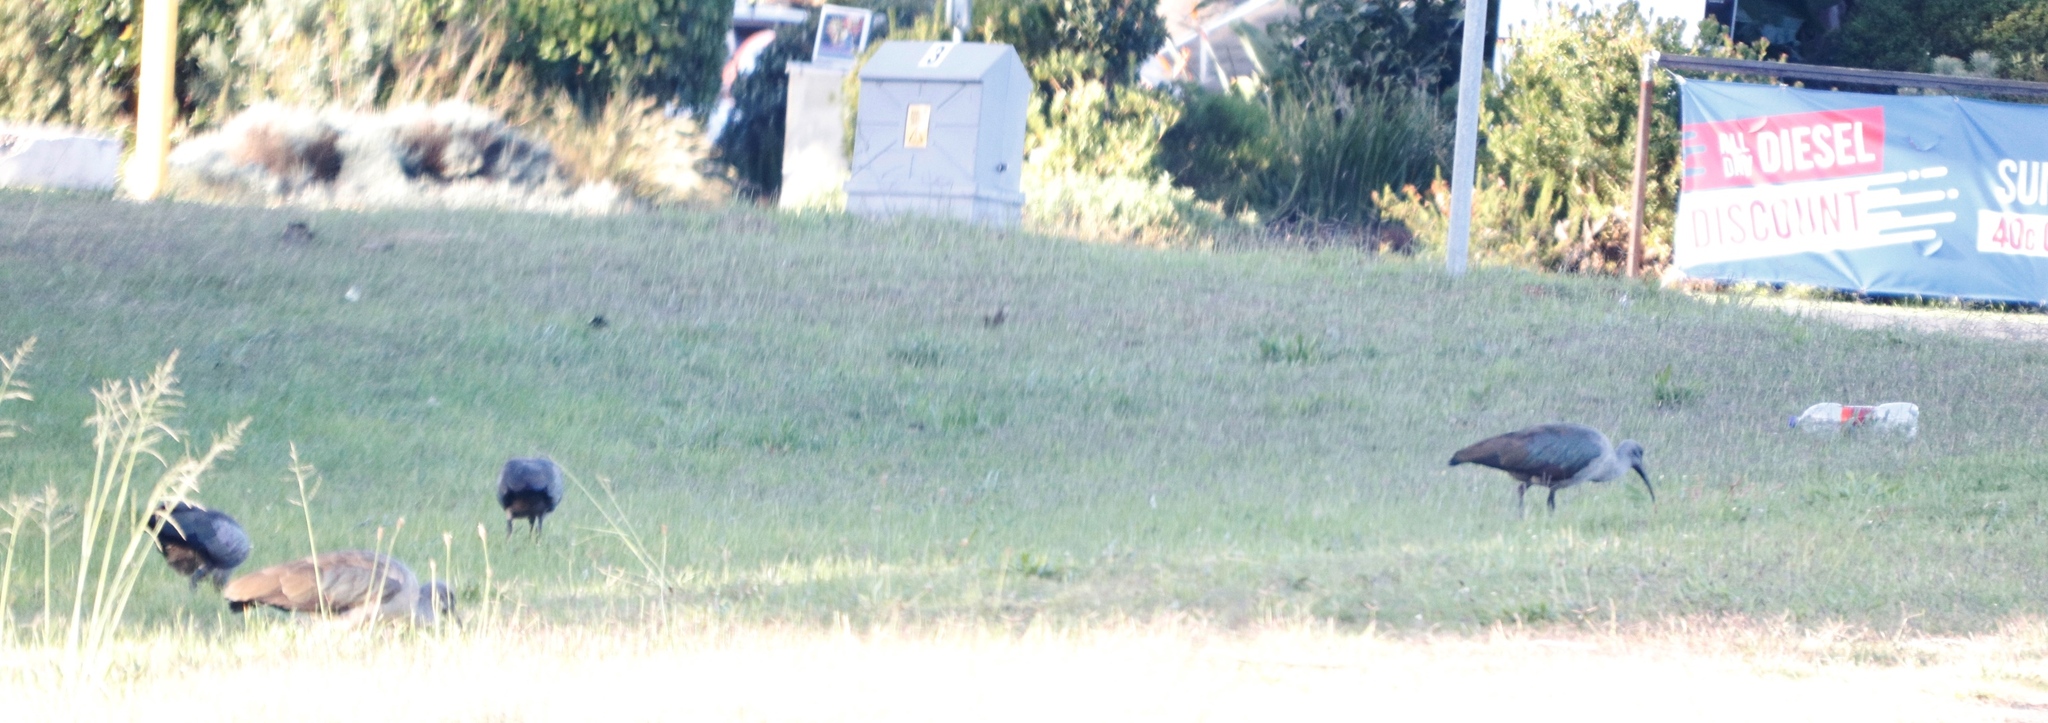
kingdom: Animalia
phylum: Chordata
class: Aves
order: Pelecaniformes
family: Threskiornithidae
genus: Bostrychia
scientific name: Bostrychia hagedash
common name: Hadada ibis
